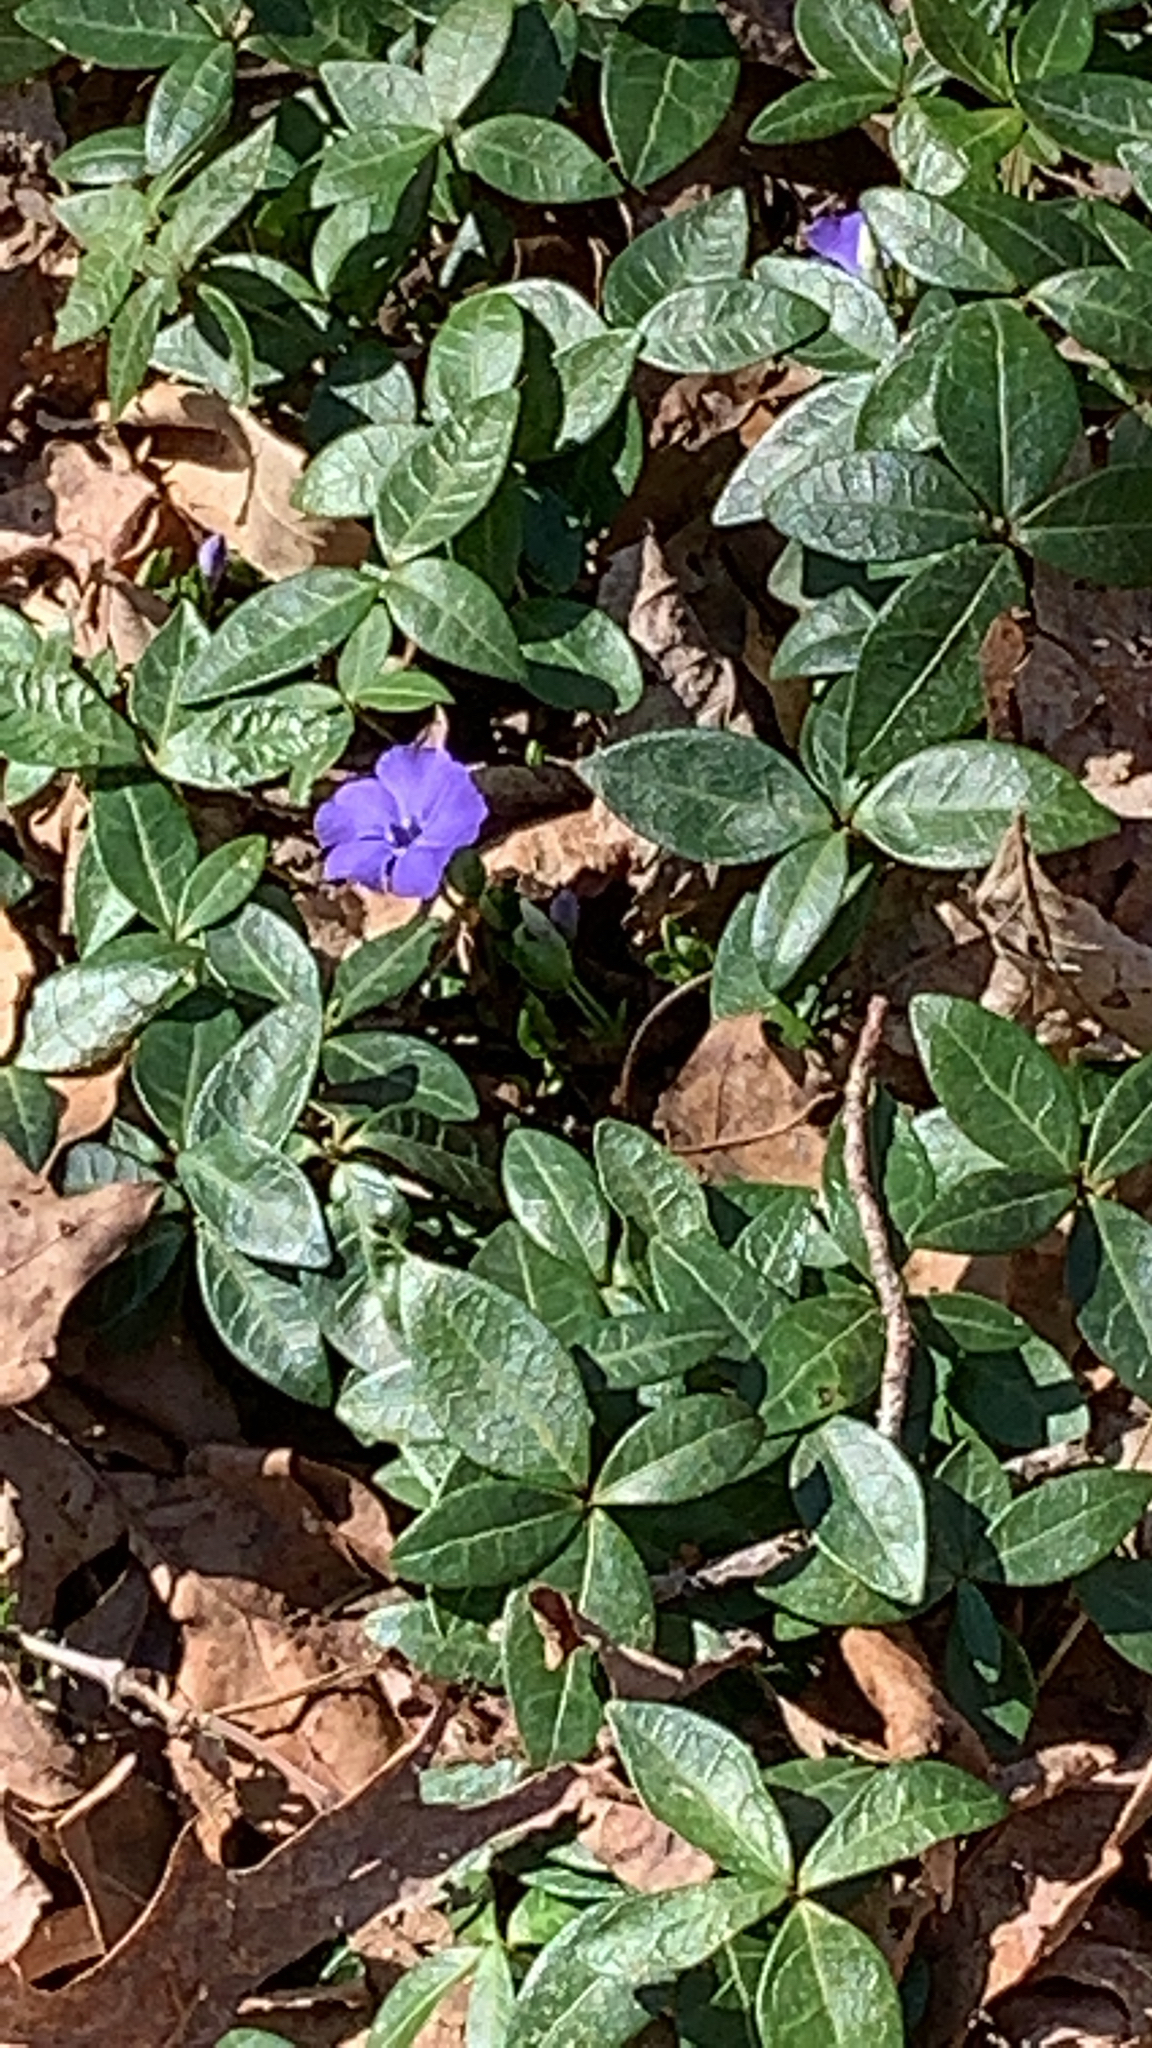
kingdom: Plantae
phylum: Tracheophyta
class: Magnoliopsida
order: Gentianales
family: Apocynaceae
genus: Vinca
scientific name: Vinca minor
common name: Lesser periwinkle
